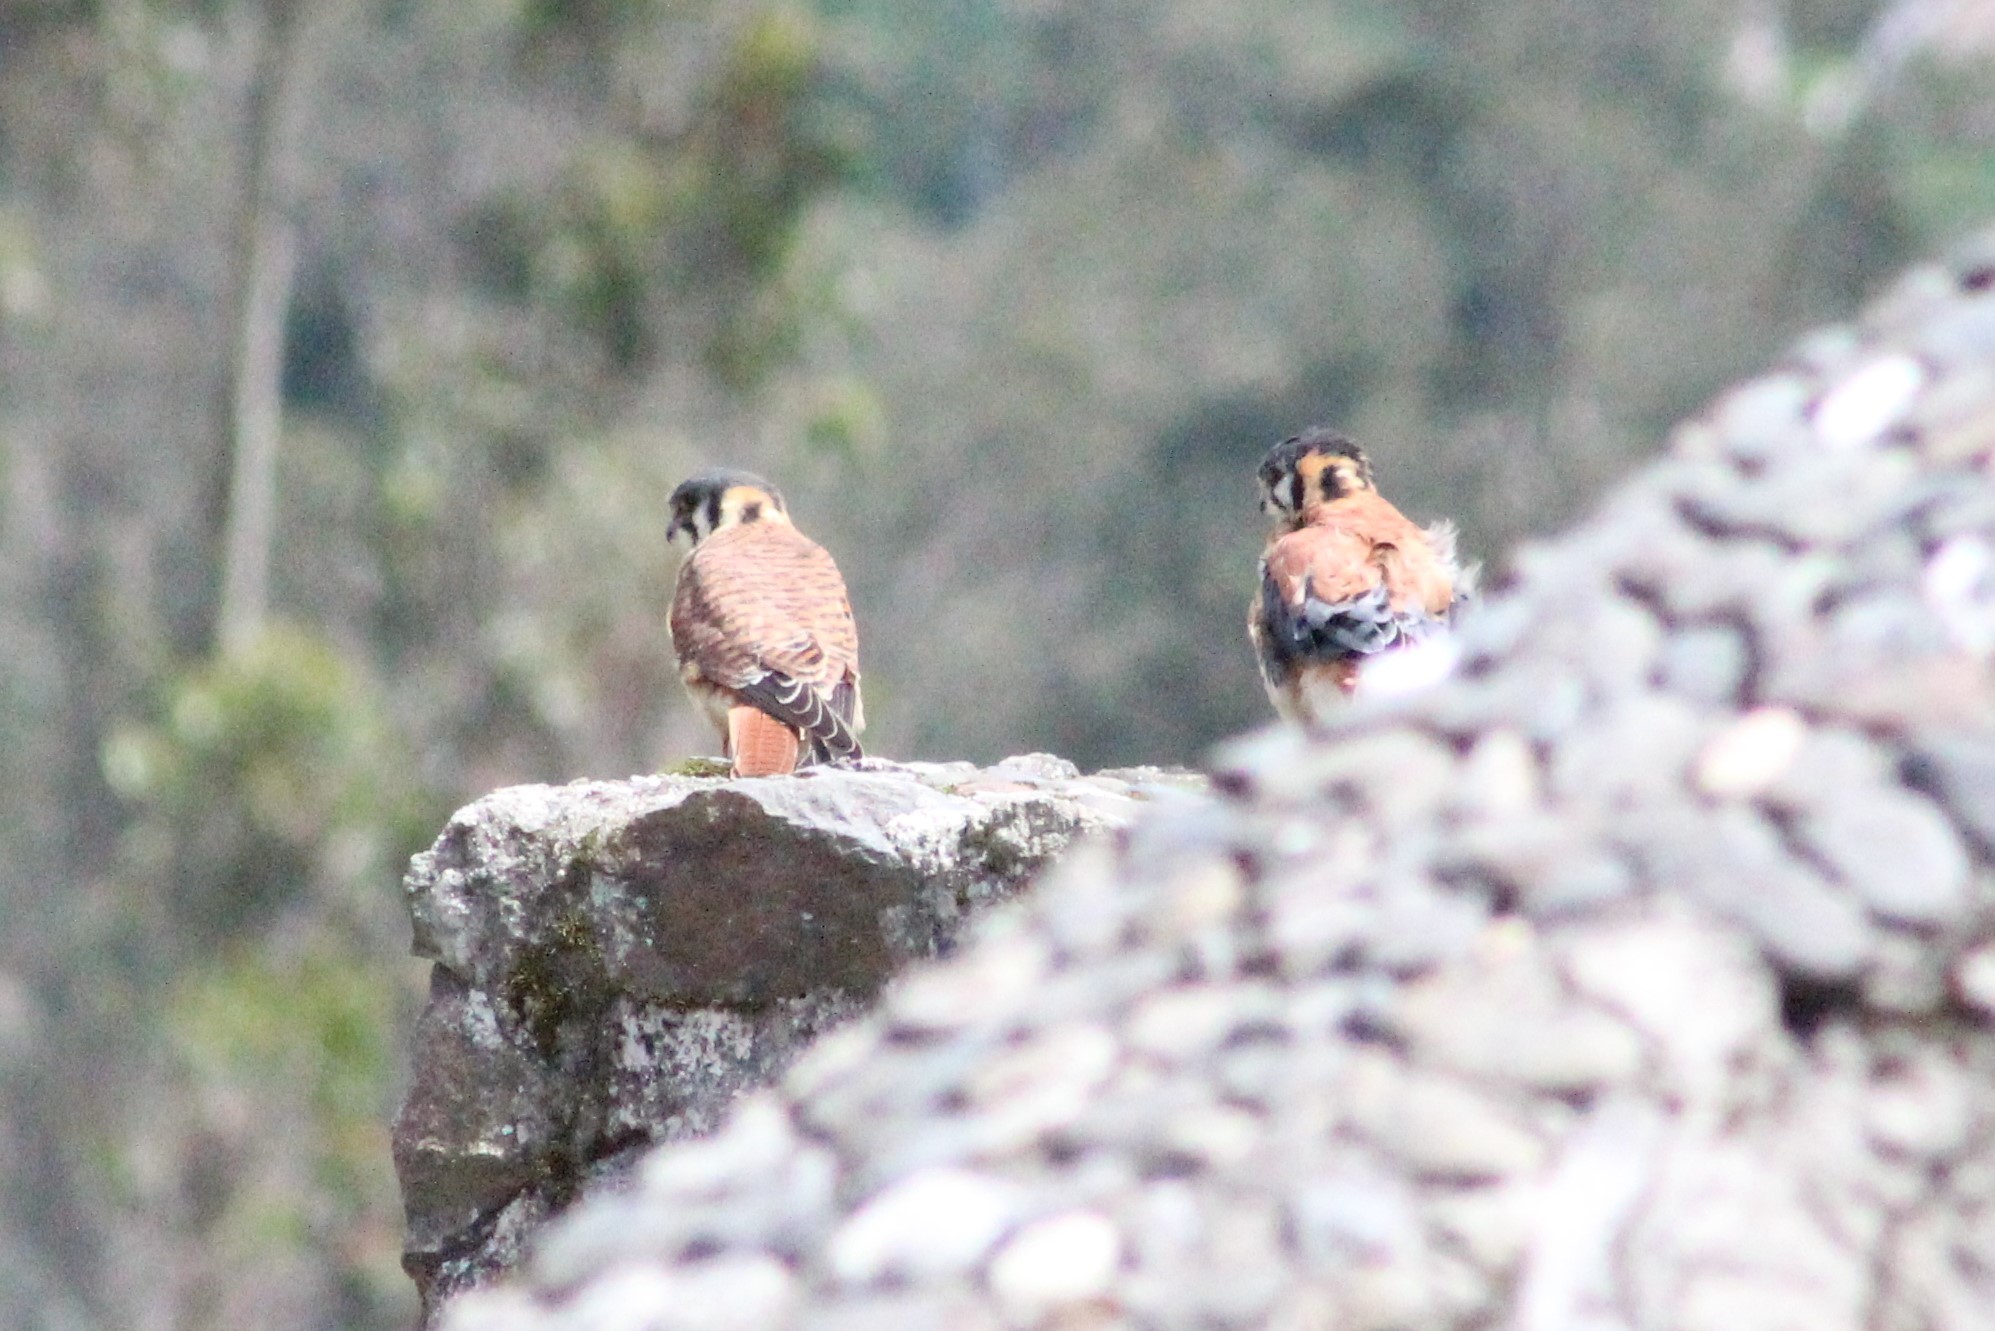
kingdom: Animalia
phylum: Chordata
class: Aves
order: Falconiformes
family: Falconidae
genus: Falco
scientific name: Falco sparverius
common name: American kestrel
